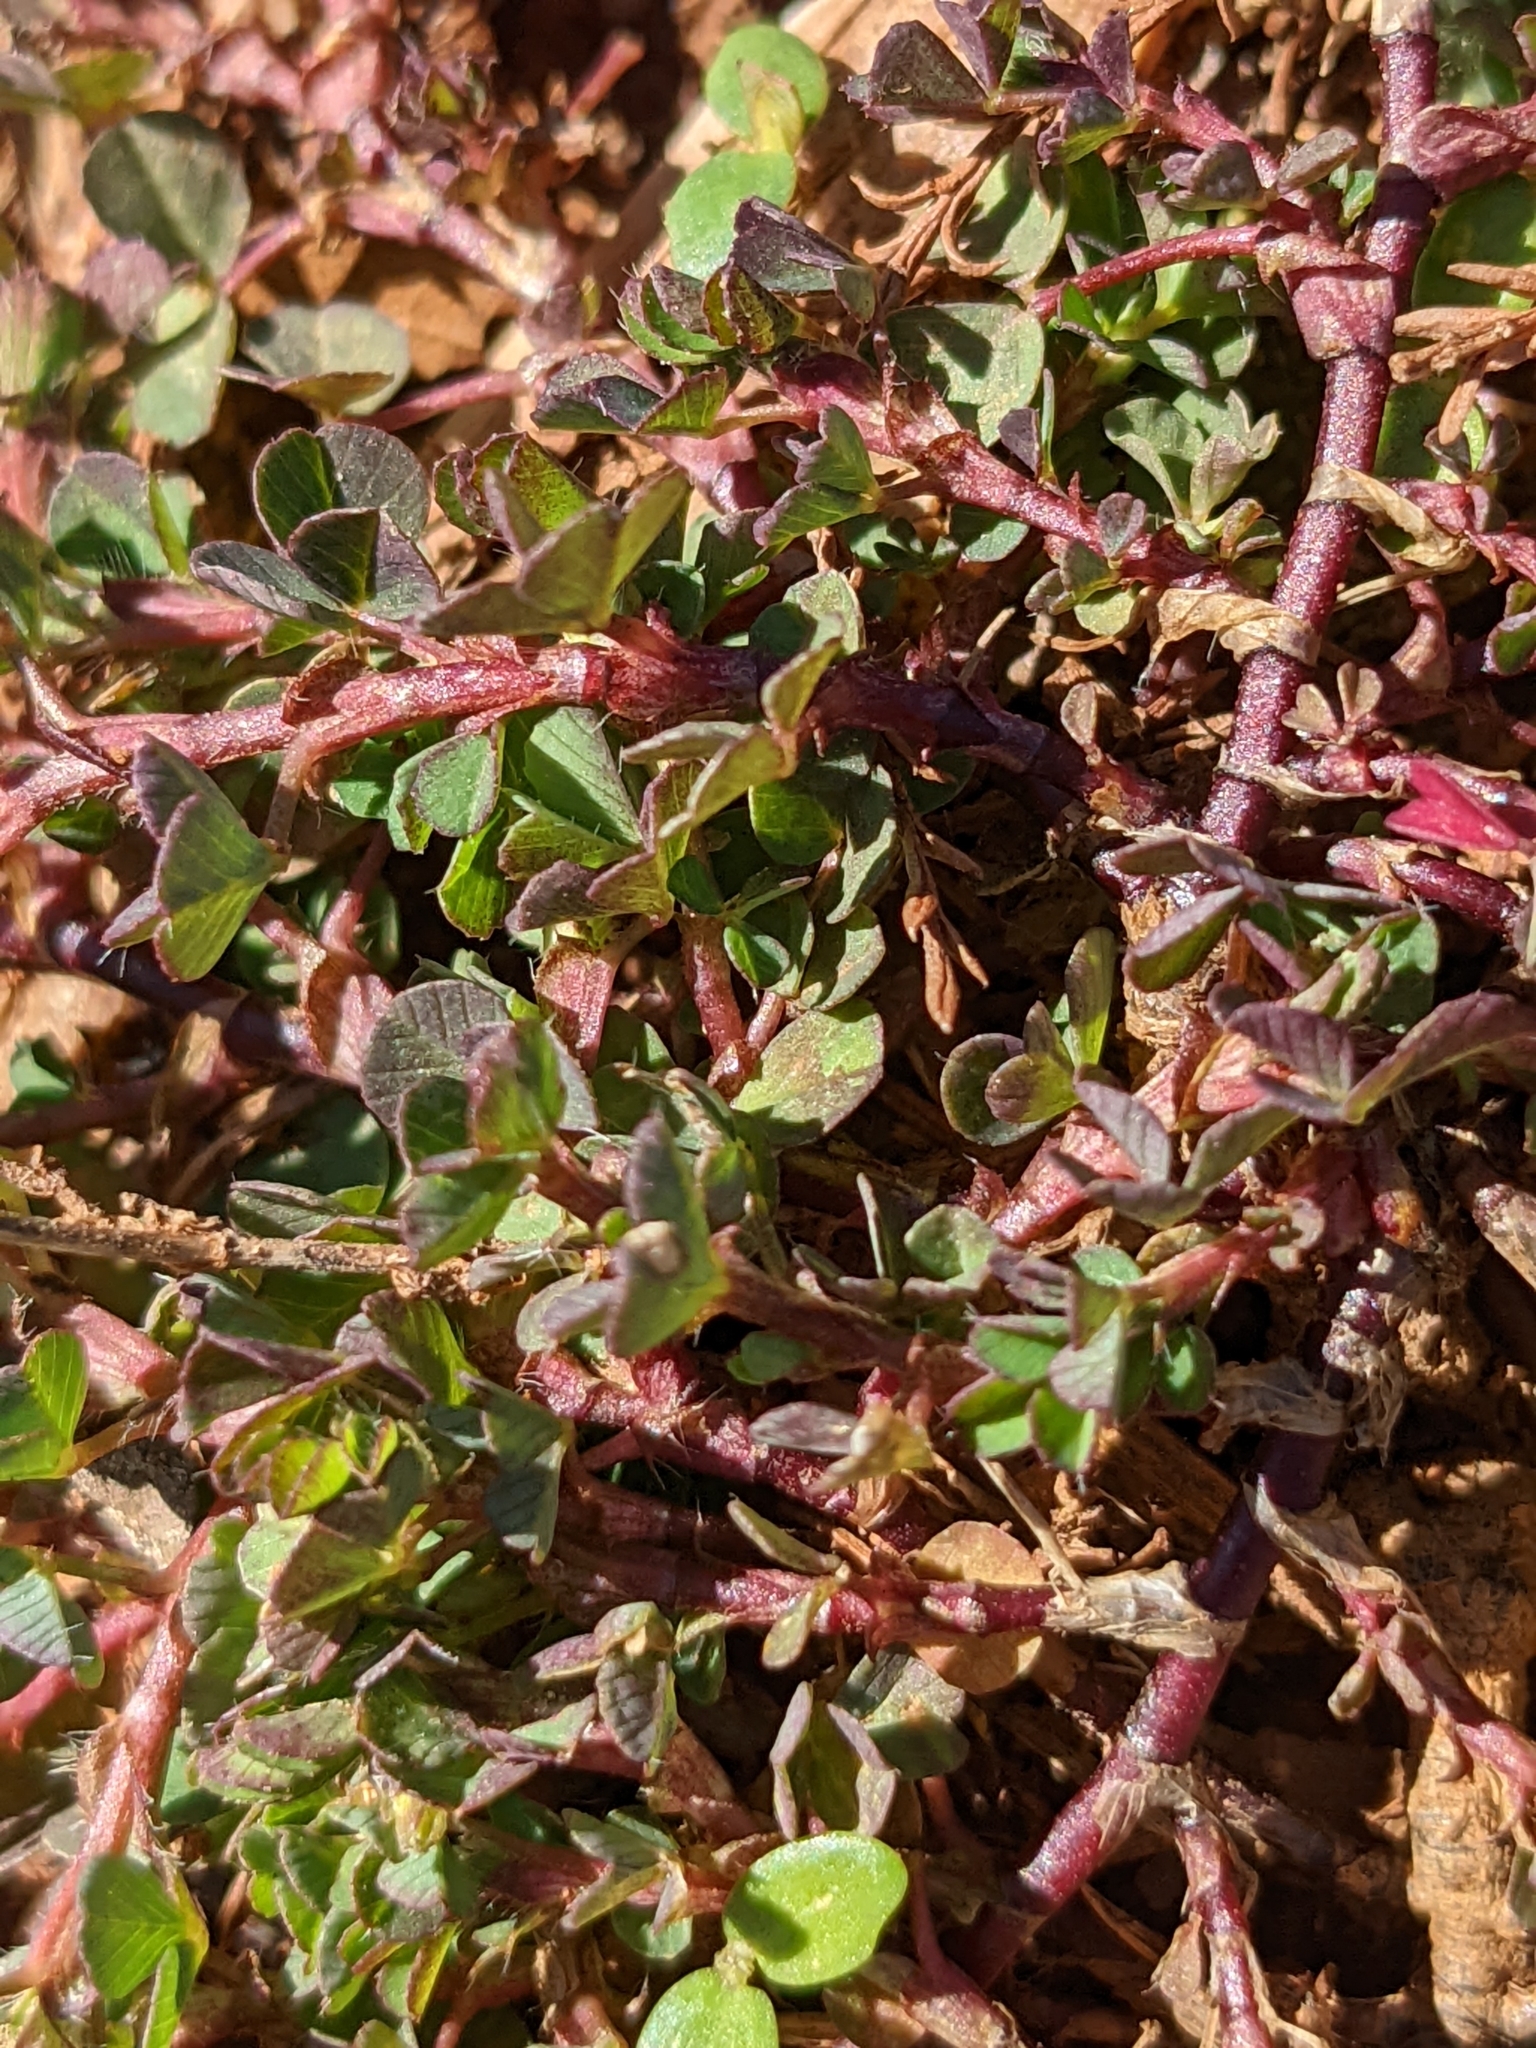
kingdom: Plantae
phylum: Tracheophyta
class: Magnoliopsida
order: Fabales
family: Fabaceae
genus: Trifolium
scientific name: Trifolium dubium
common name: Suckling clover
